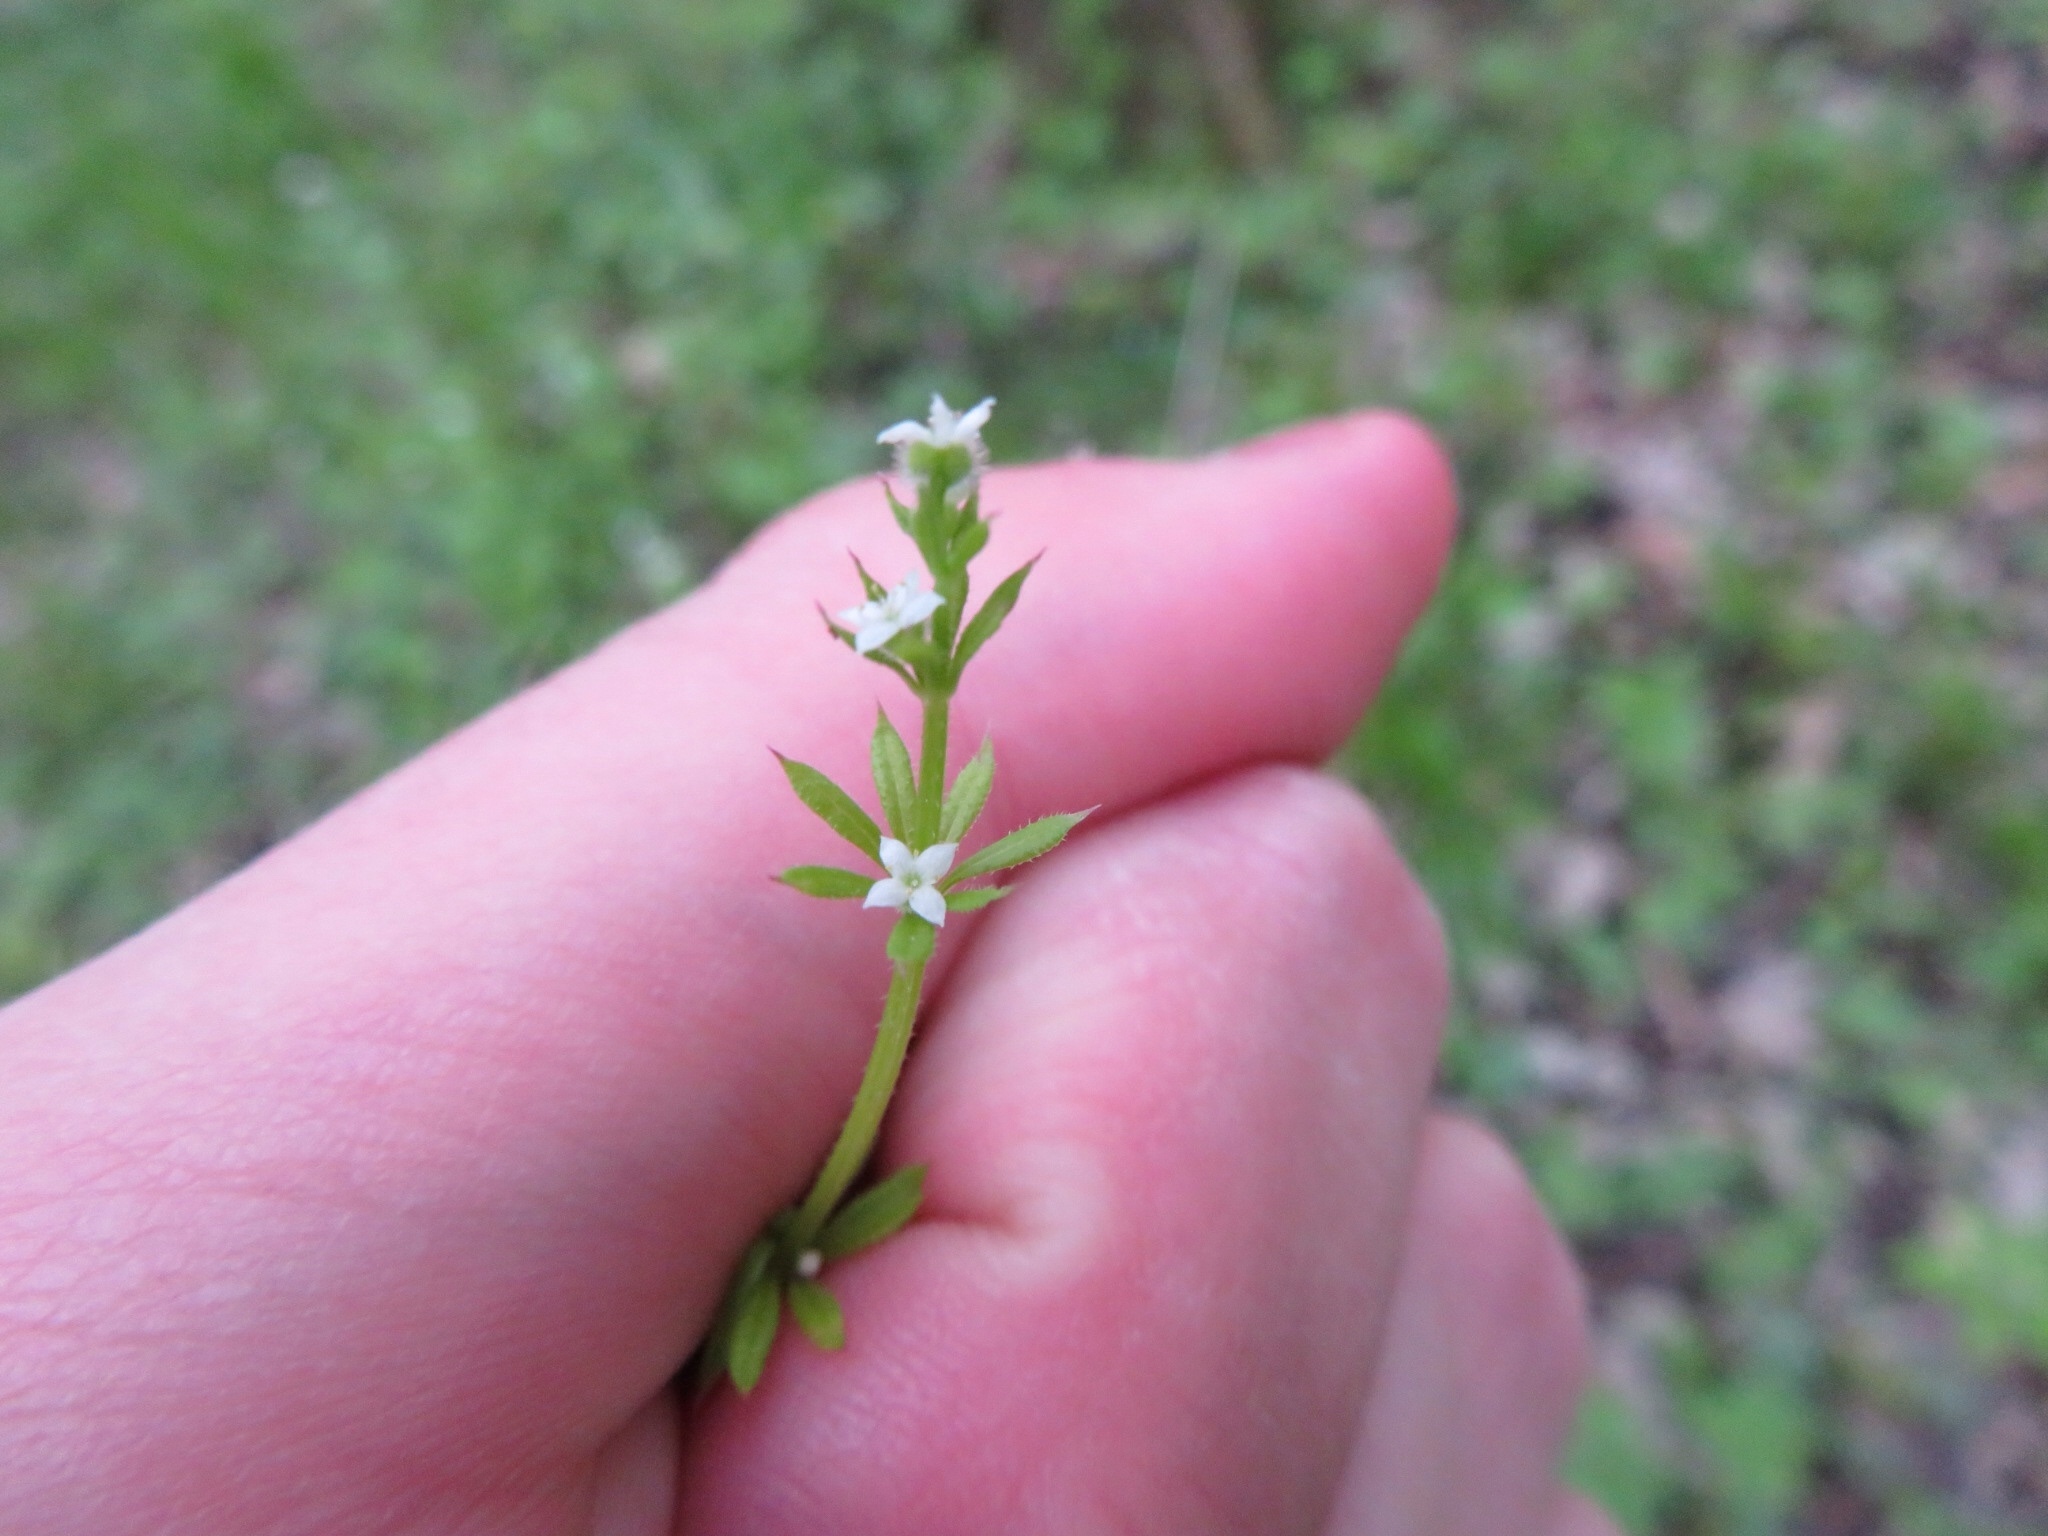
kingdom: Plantae
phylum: Tracheophyta
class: Magnoliopsida
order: Gentianales
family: Rubiaceae
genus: Galium
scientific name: Galium aparine
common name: Cleavers
